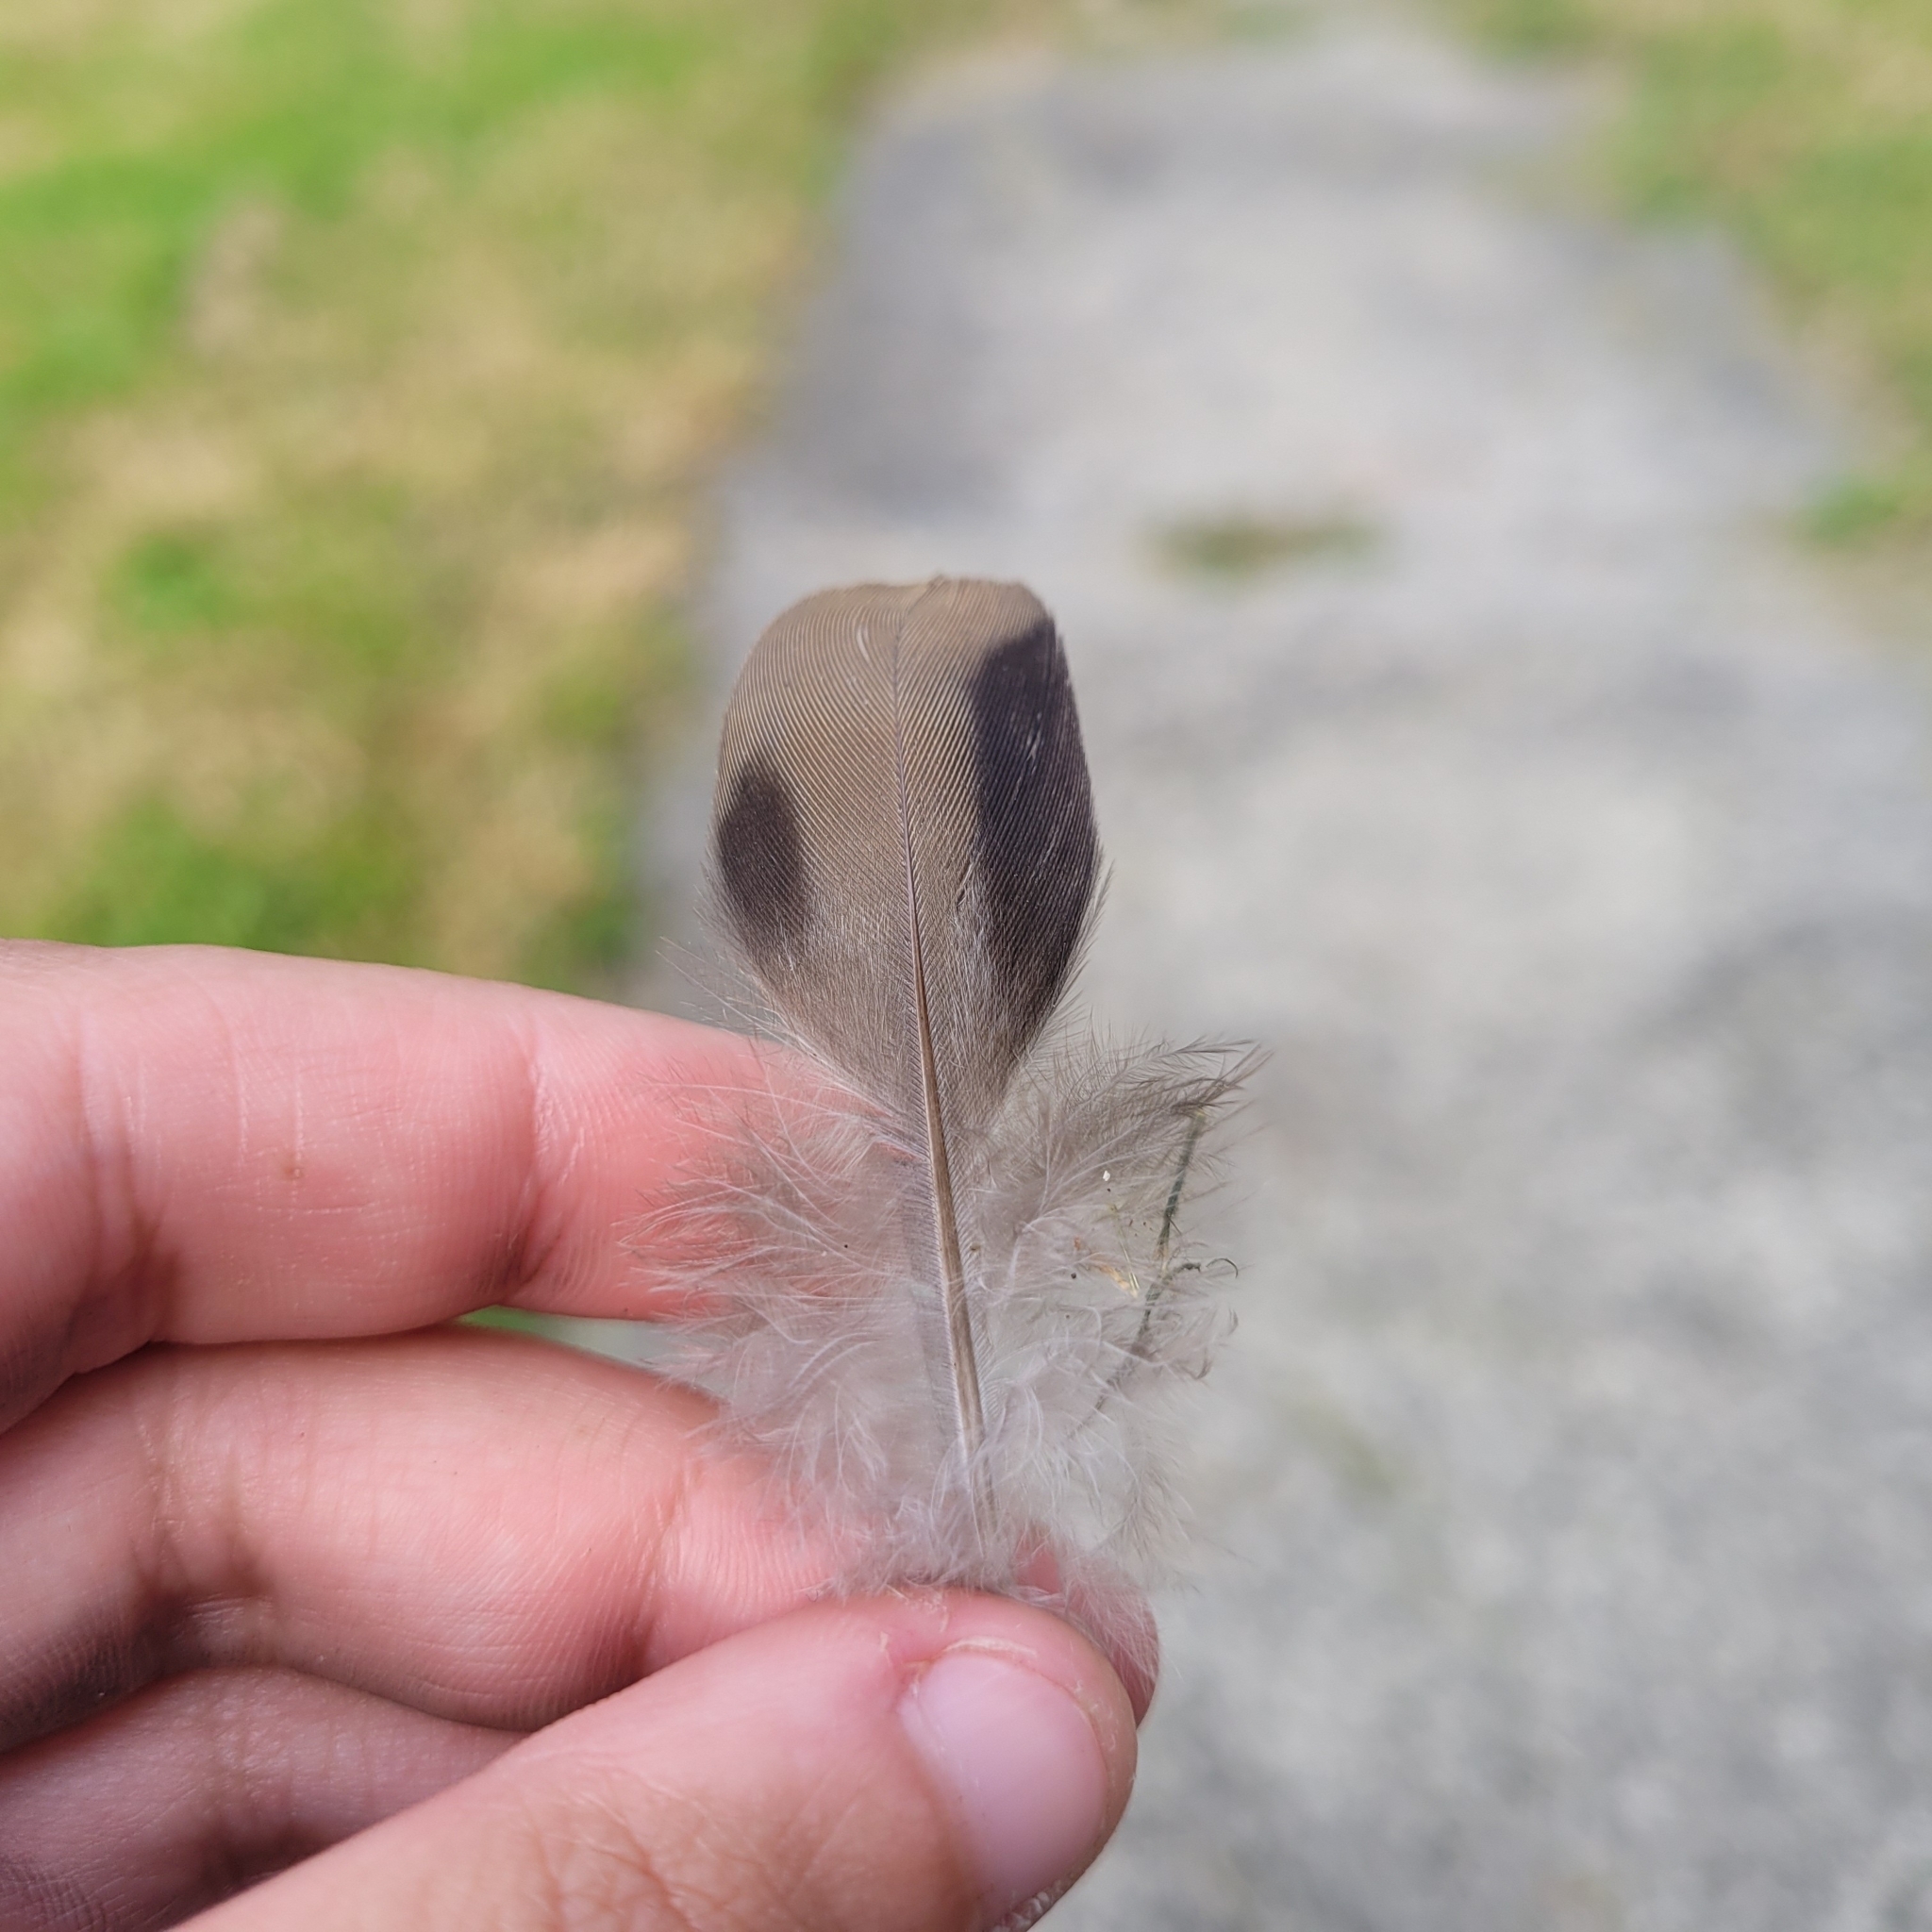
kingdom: Animalia
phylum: Chordata
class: Aves
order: Columbiformes
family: Columbidae
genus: Zenaida
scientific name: Zenaida macroura
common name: Mourning dove
